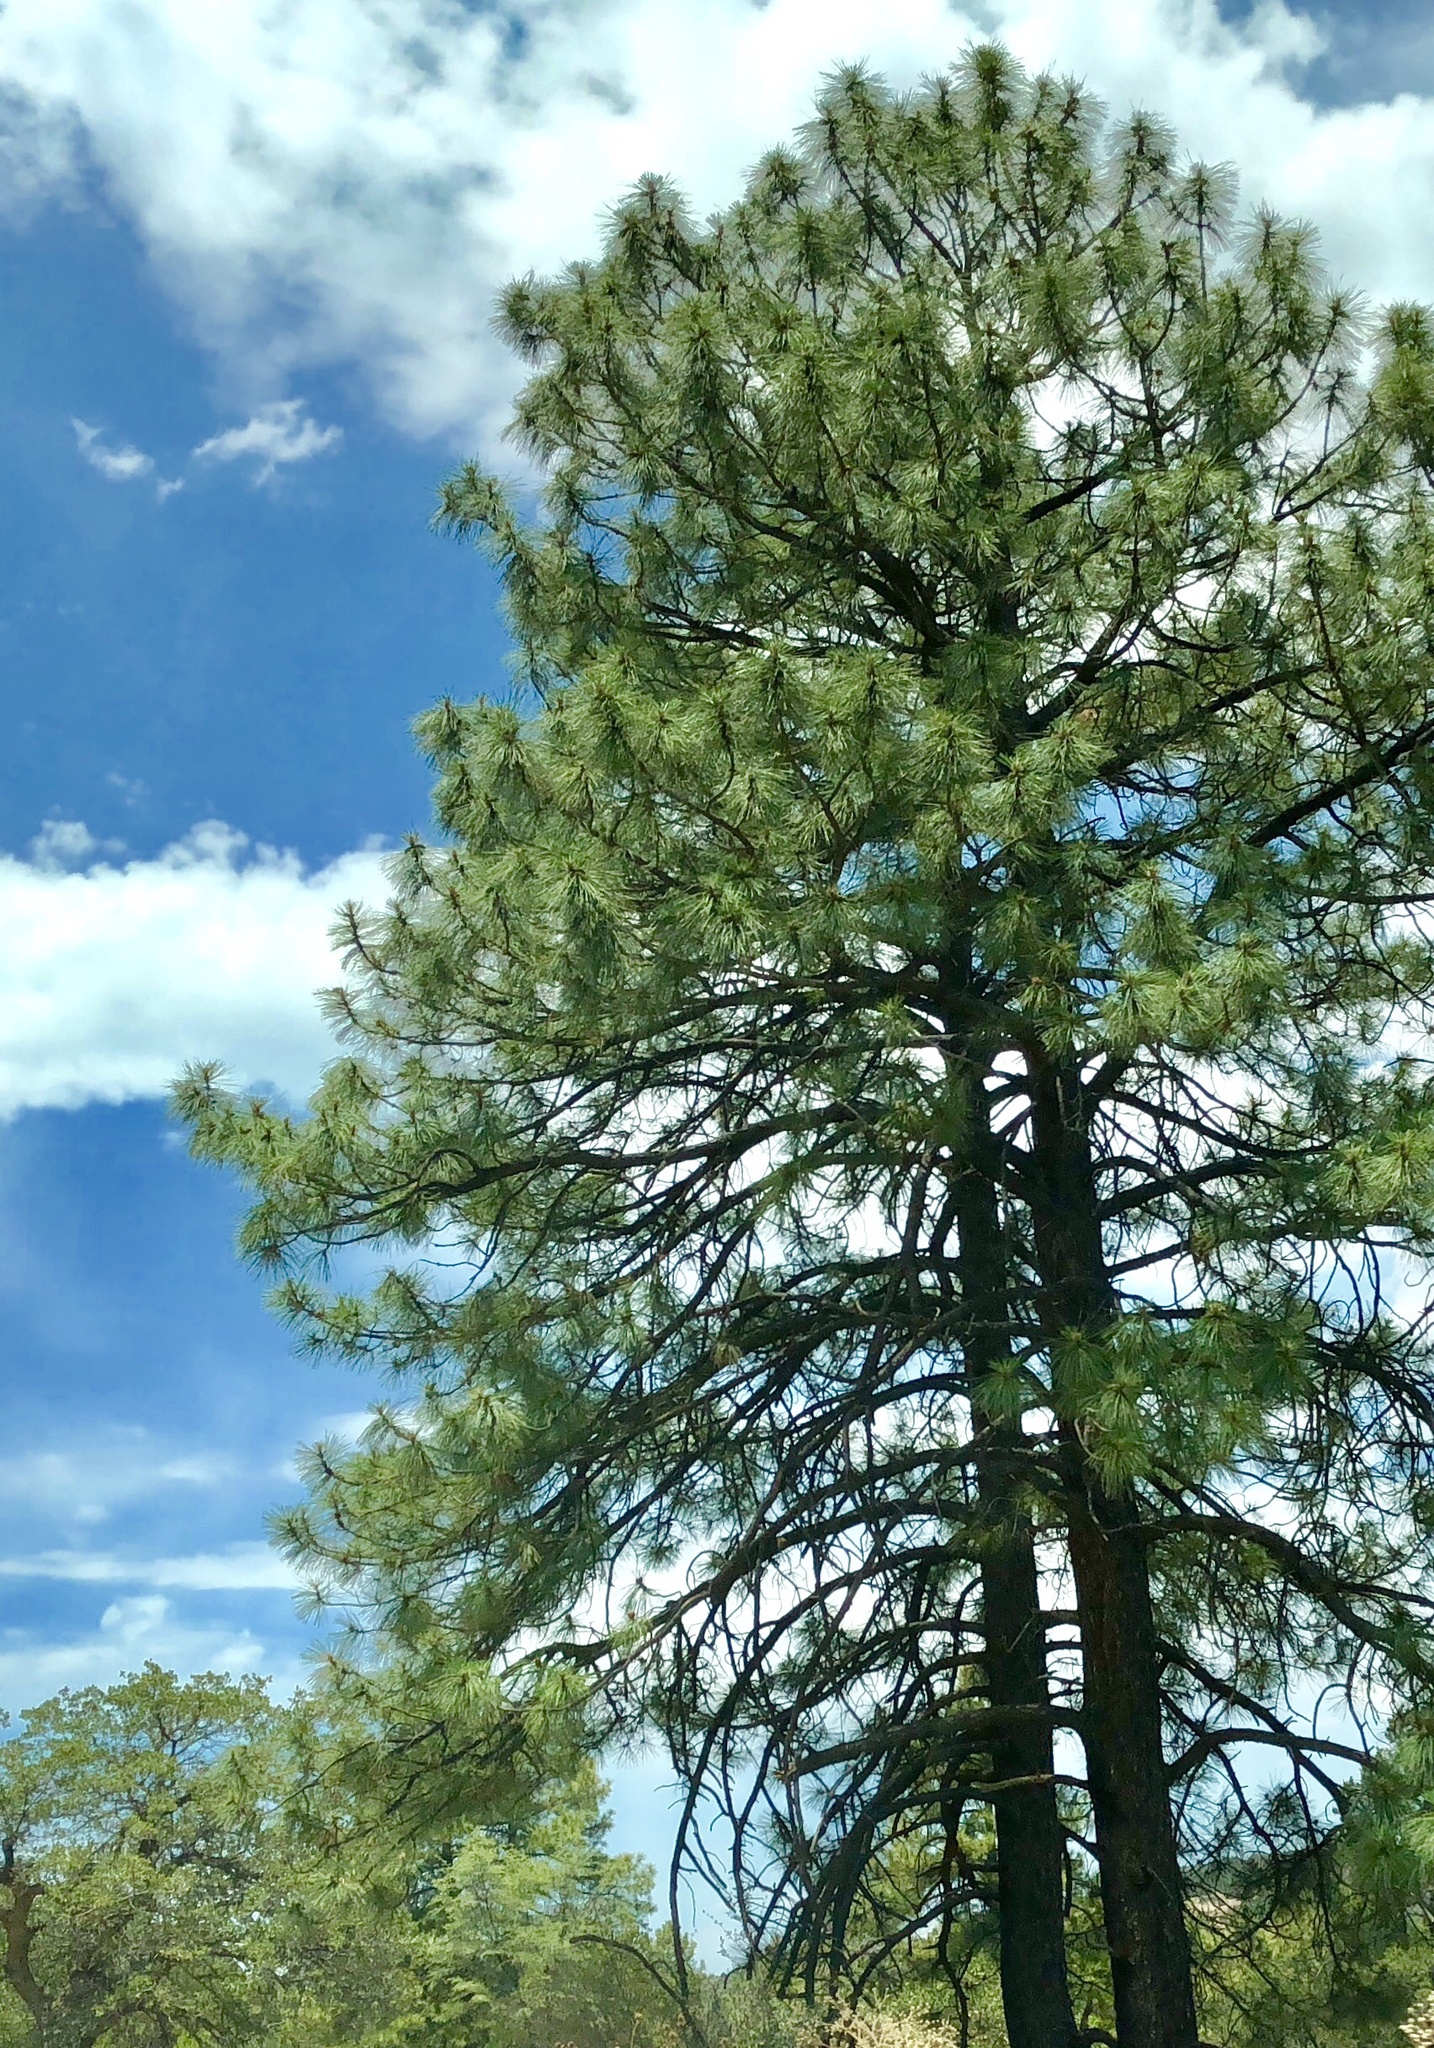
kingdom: Plantae
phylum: Tracheophyta
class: Pinopsida
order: Pinales
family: Pinaceae
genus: Pinus
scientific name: Pinus ponderosa
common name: Western yellow-pine
